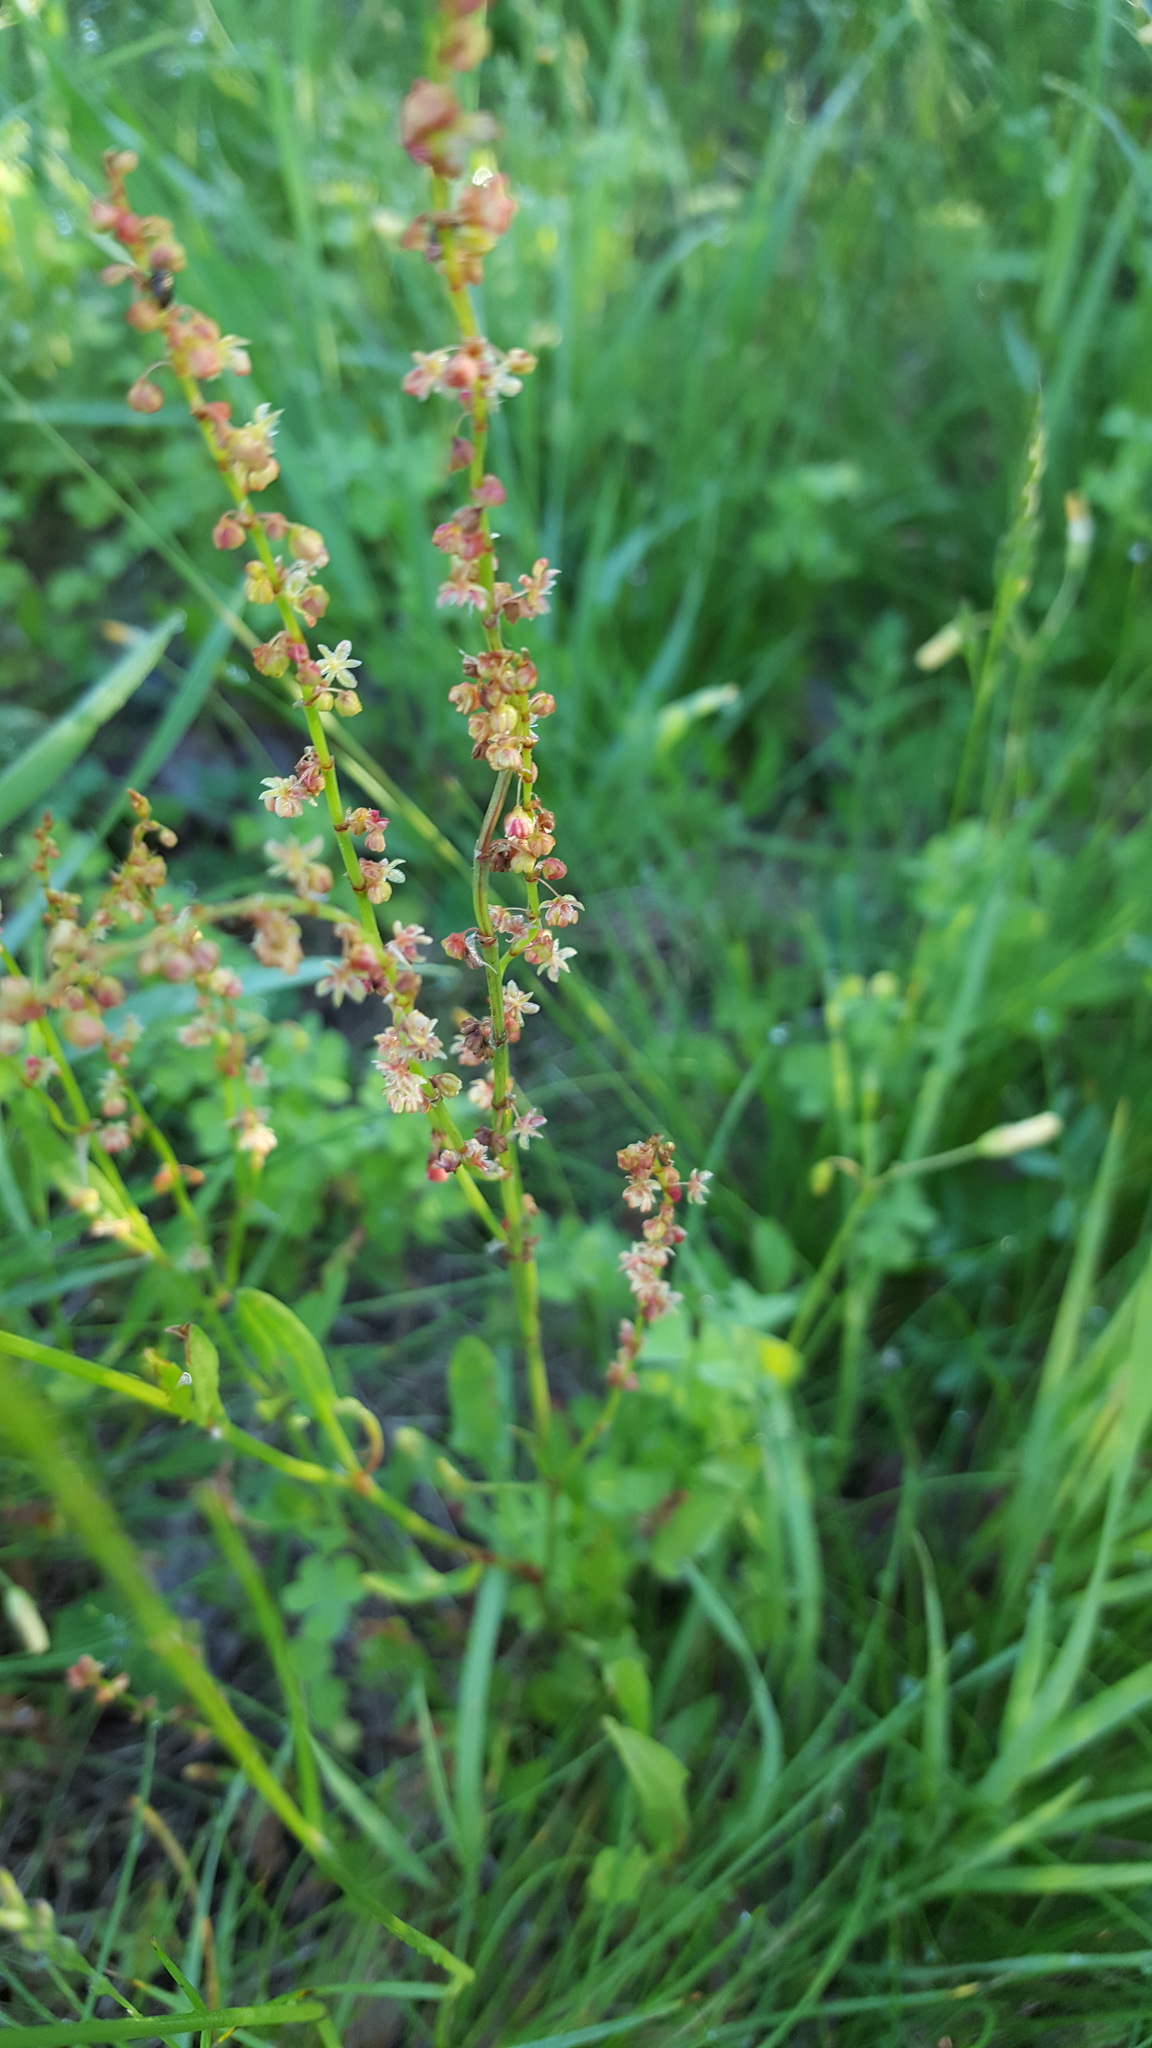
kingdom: Plantae
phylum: Tracheophyta
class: Magnoliopsida
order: Caryophyllales
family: Polygonaceae
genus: Rumex
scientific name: Rumex acetosella
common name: Common sheep sorrel
